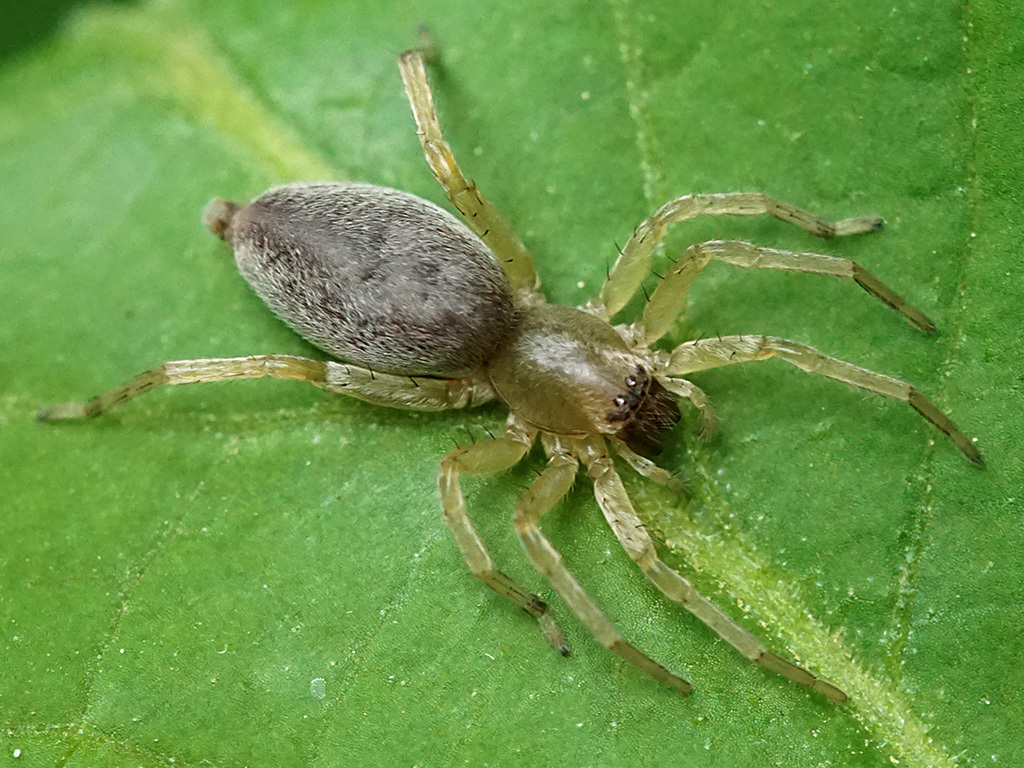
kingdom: Animalia
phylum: Arthropoda
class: Arachnida
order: Araneae
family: Clubionidae
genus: Clubiona
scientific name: Clubiona
